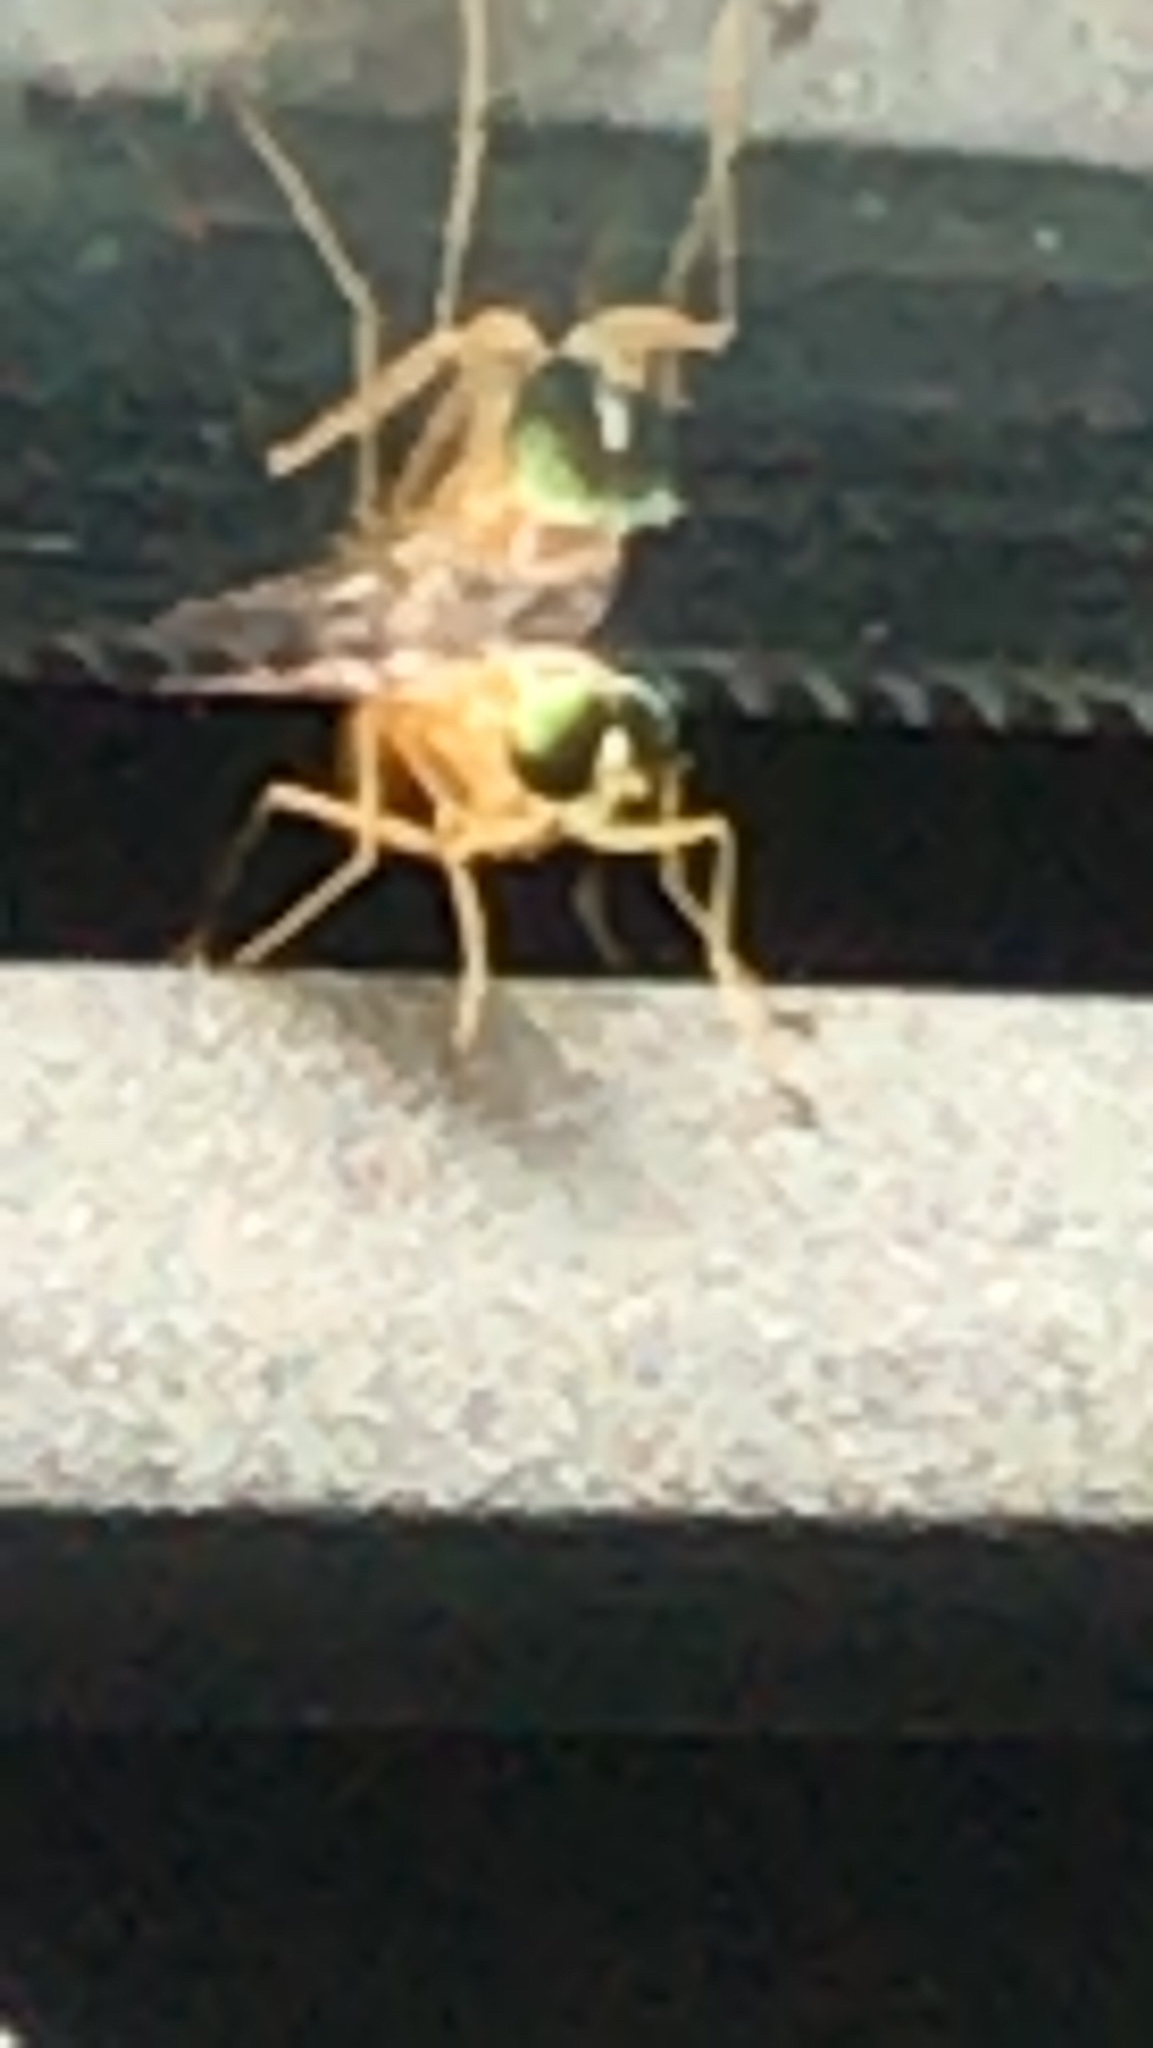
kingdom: Animalia
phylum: Arthropoda
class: Insecta
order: Diptera
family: Stratiomyidae
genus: Ptecticus
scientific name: Ptecticus trivittatus
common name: Compost fly
